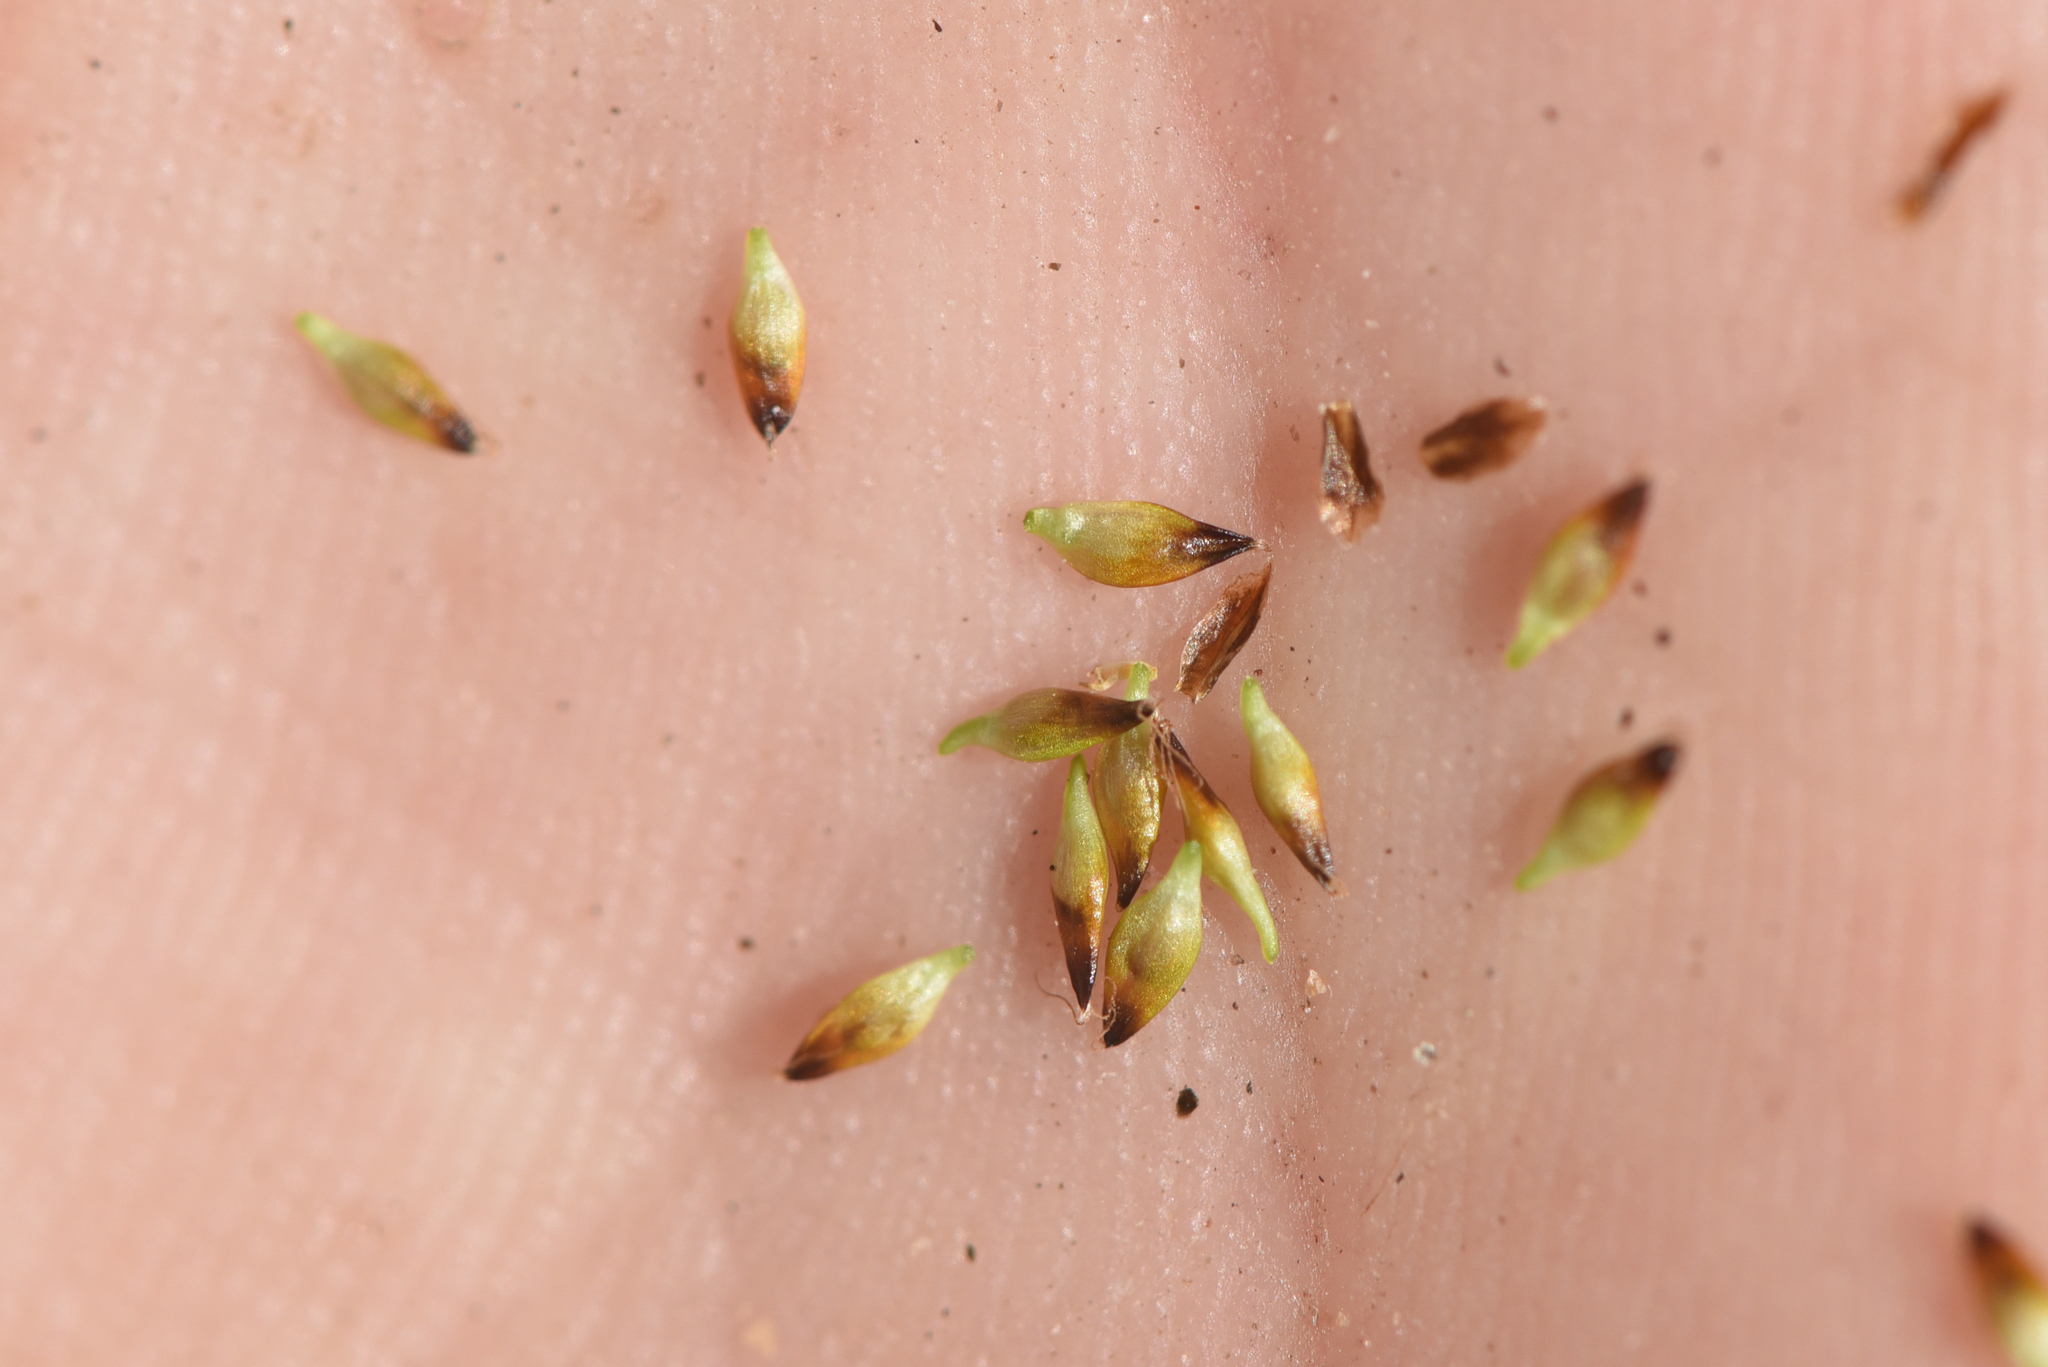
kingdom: Plantae
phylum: Tracheophyta
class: Liliopsida
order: Poales
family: Cyperaceae
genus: Carex
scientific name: Carex nardina
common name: Nard sedge
